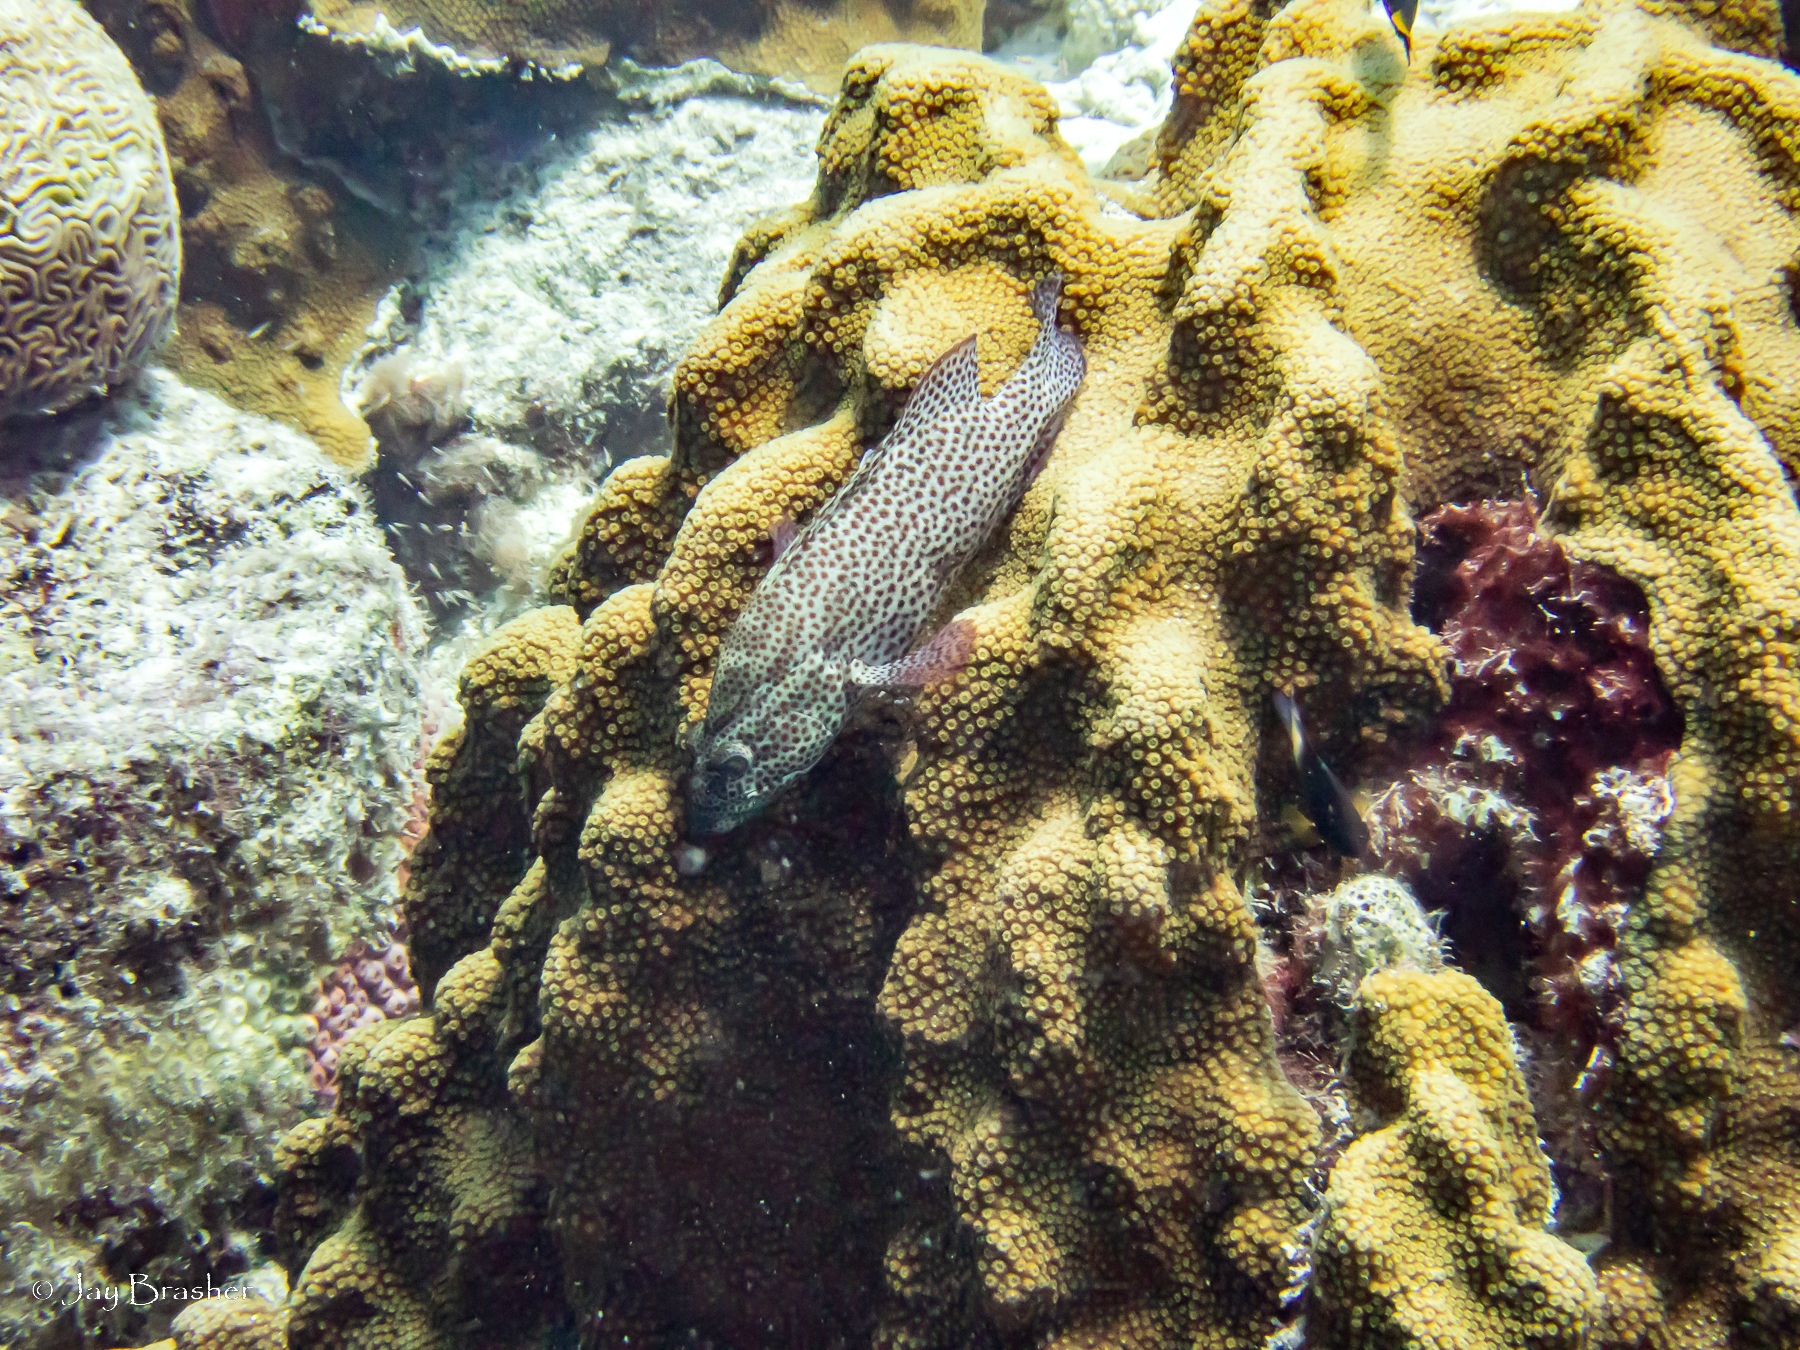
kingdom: Animalia
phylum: Cnidaria
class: Anthozoa
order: Scleractinia
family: Faviidae
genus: Diploria
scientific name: Diploria labyrinthiformis
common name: Grooved brain coral
